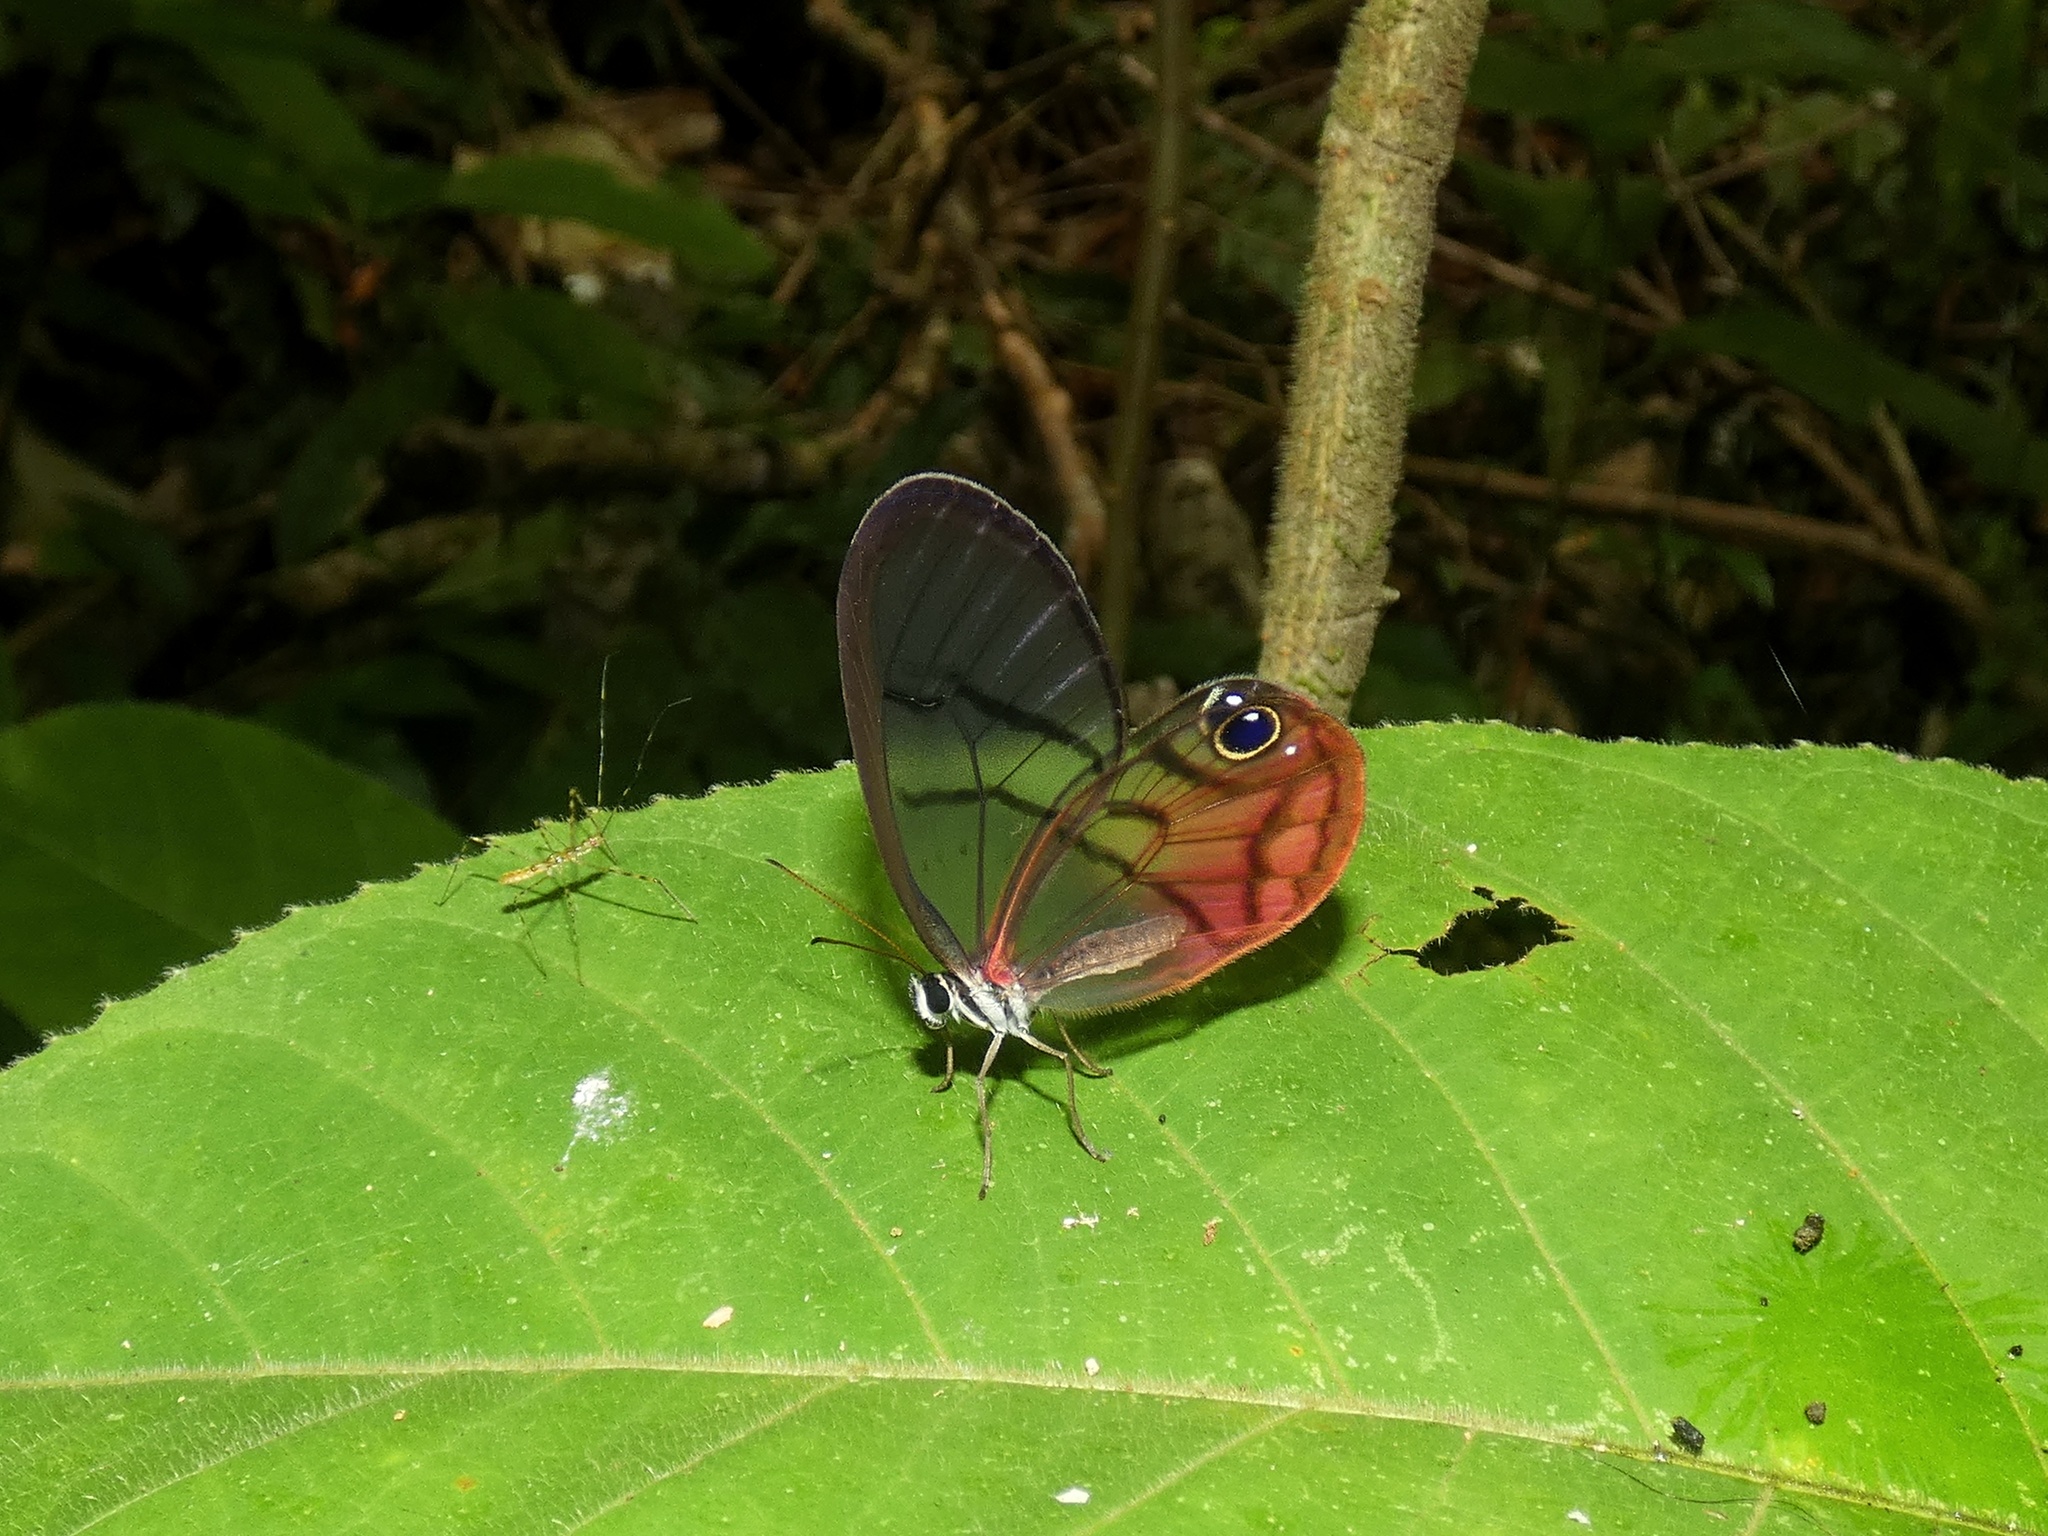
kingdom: Animalia
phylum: Arthropoda
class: Insecta
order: Lepidoptera
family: Nymphalidae
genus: Cithaerias
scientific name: Cithaerias pireta
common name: Rusted clearwing-satyr
